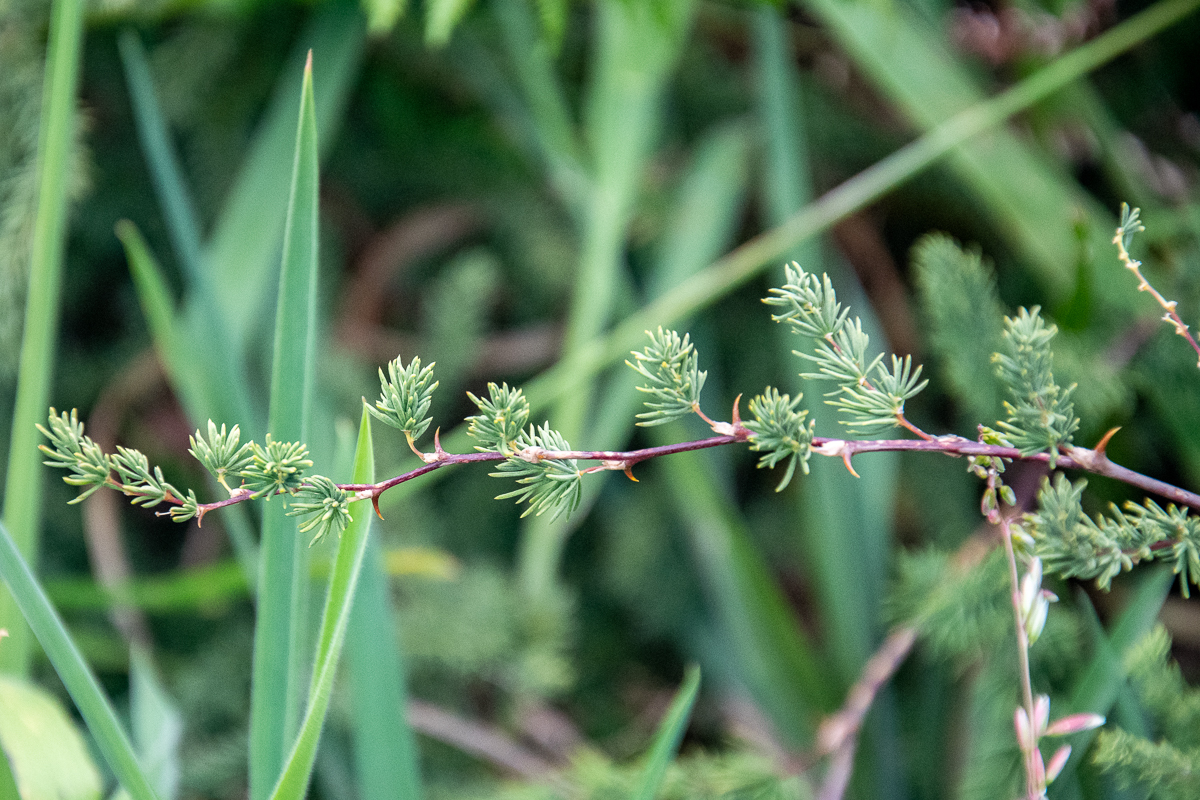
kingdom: Plantae
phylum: Tracheophyta
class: Liliopsida
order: Asparagales
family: Asparagaceae
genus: Asparagus
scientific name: Asparagus rubicundus
